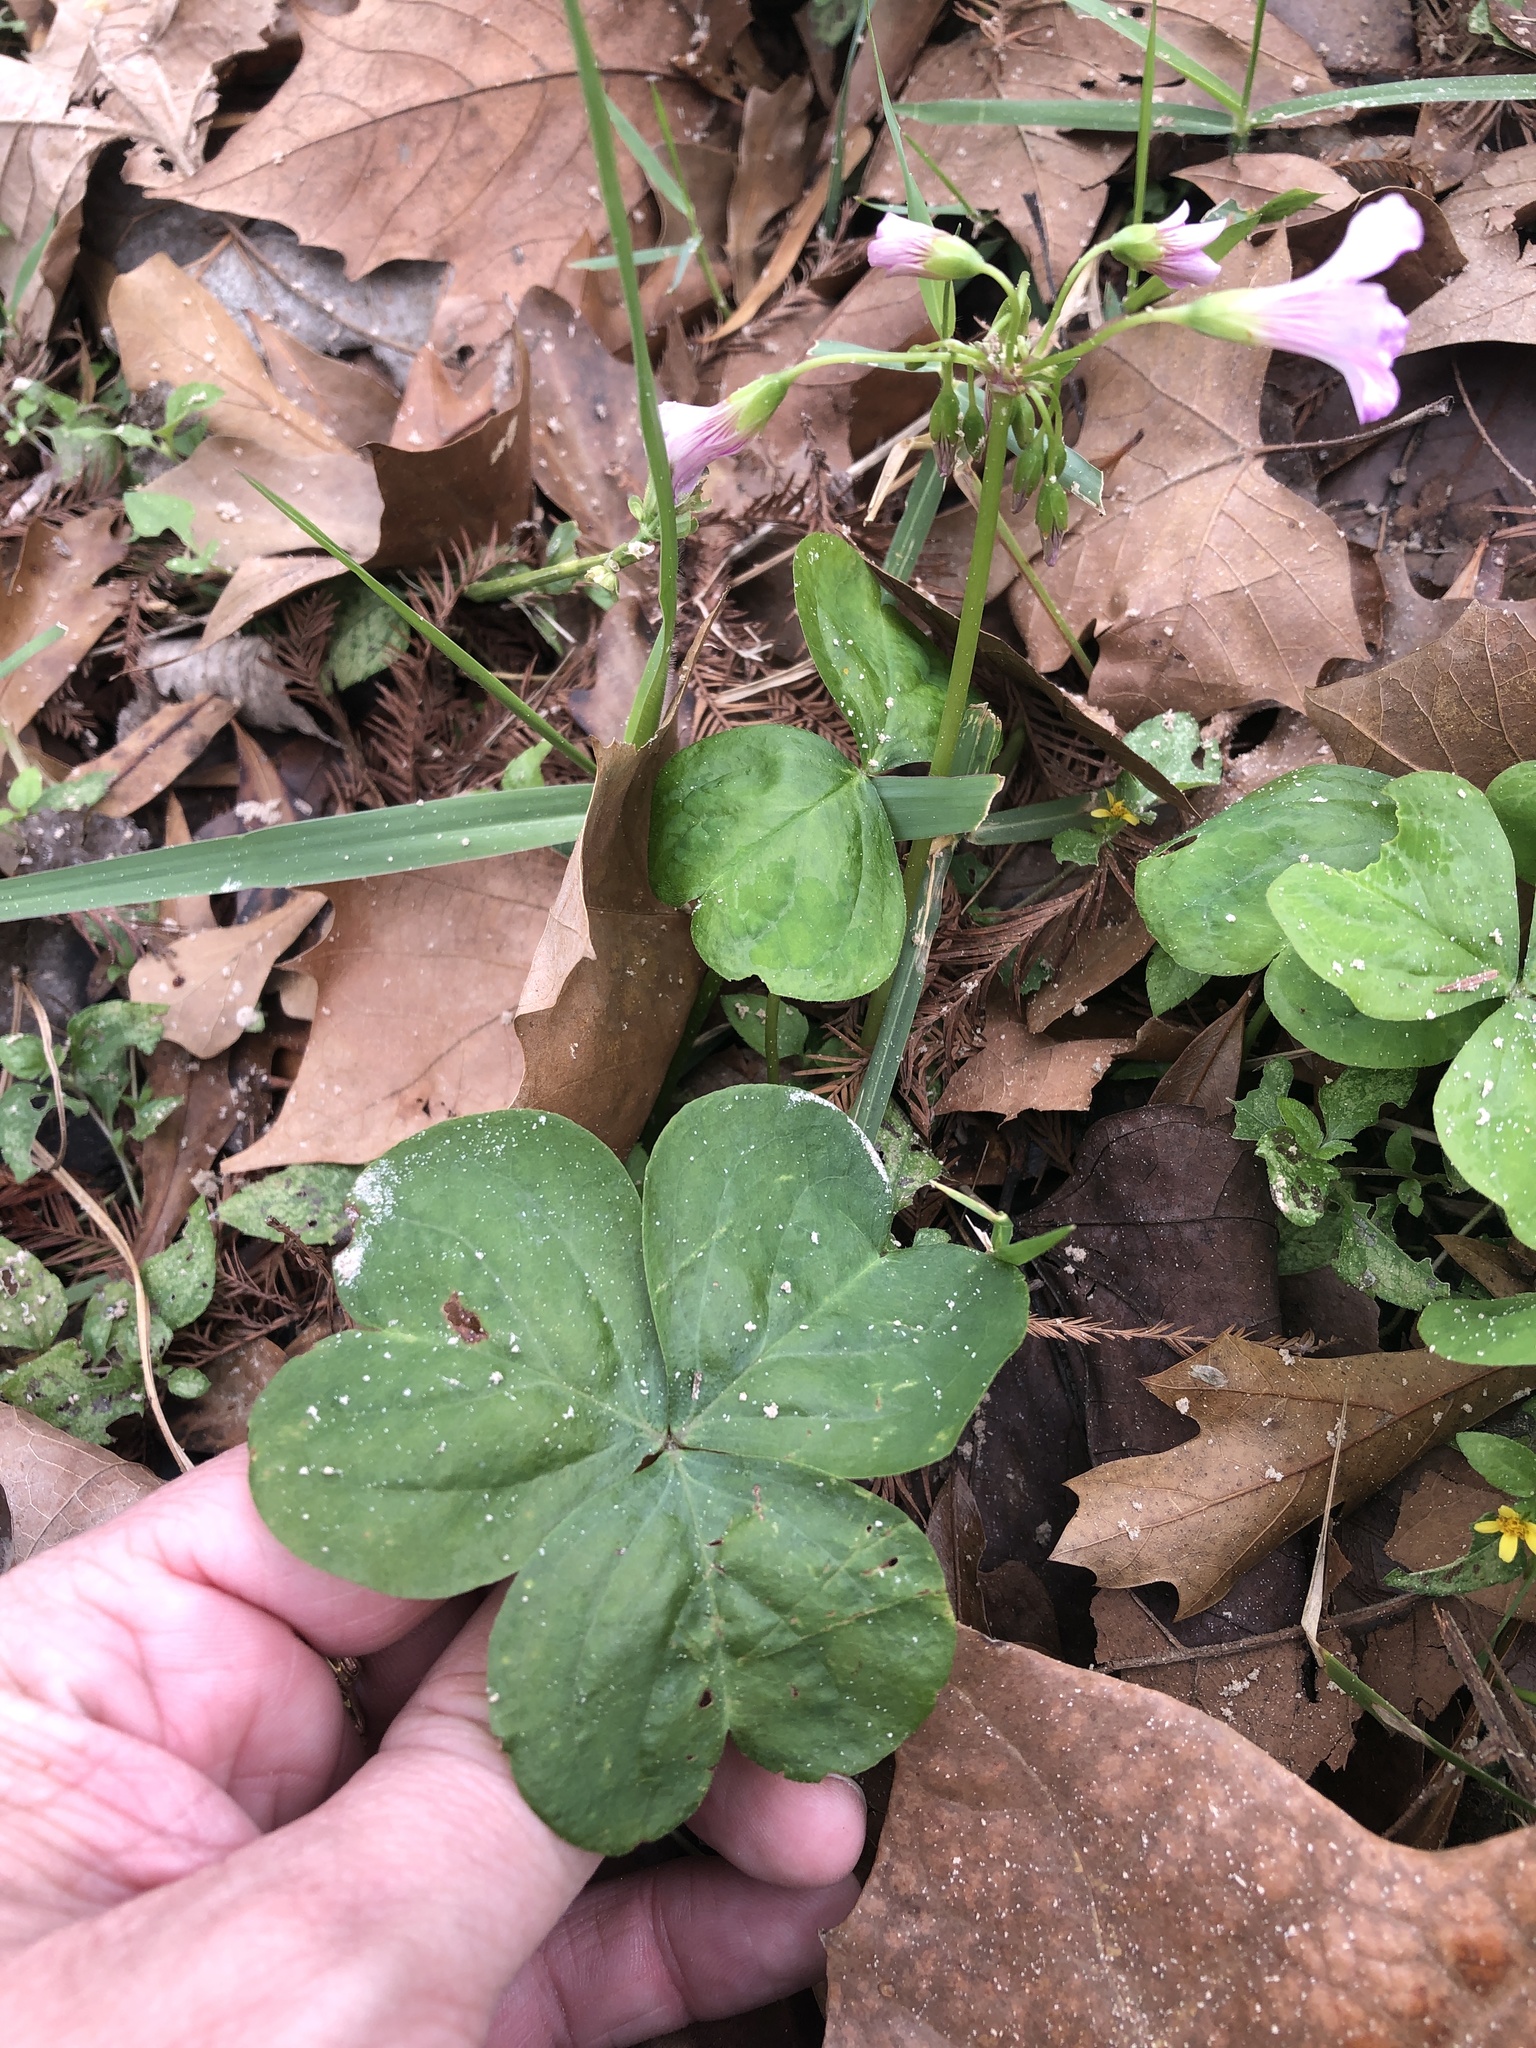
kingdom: Plantae
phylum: Tracheophyta
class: Magnoliopsida
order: Oxalidales
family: Oxalidaceae
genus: Oxalis
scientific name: Oxalis debilis
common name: Large-flowered pink-sorrel
